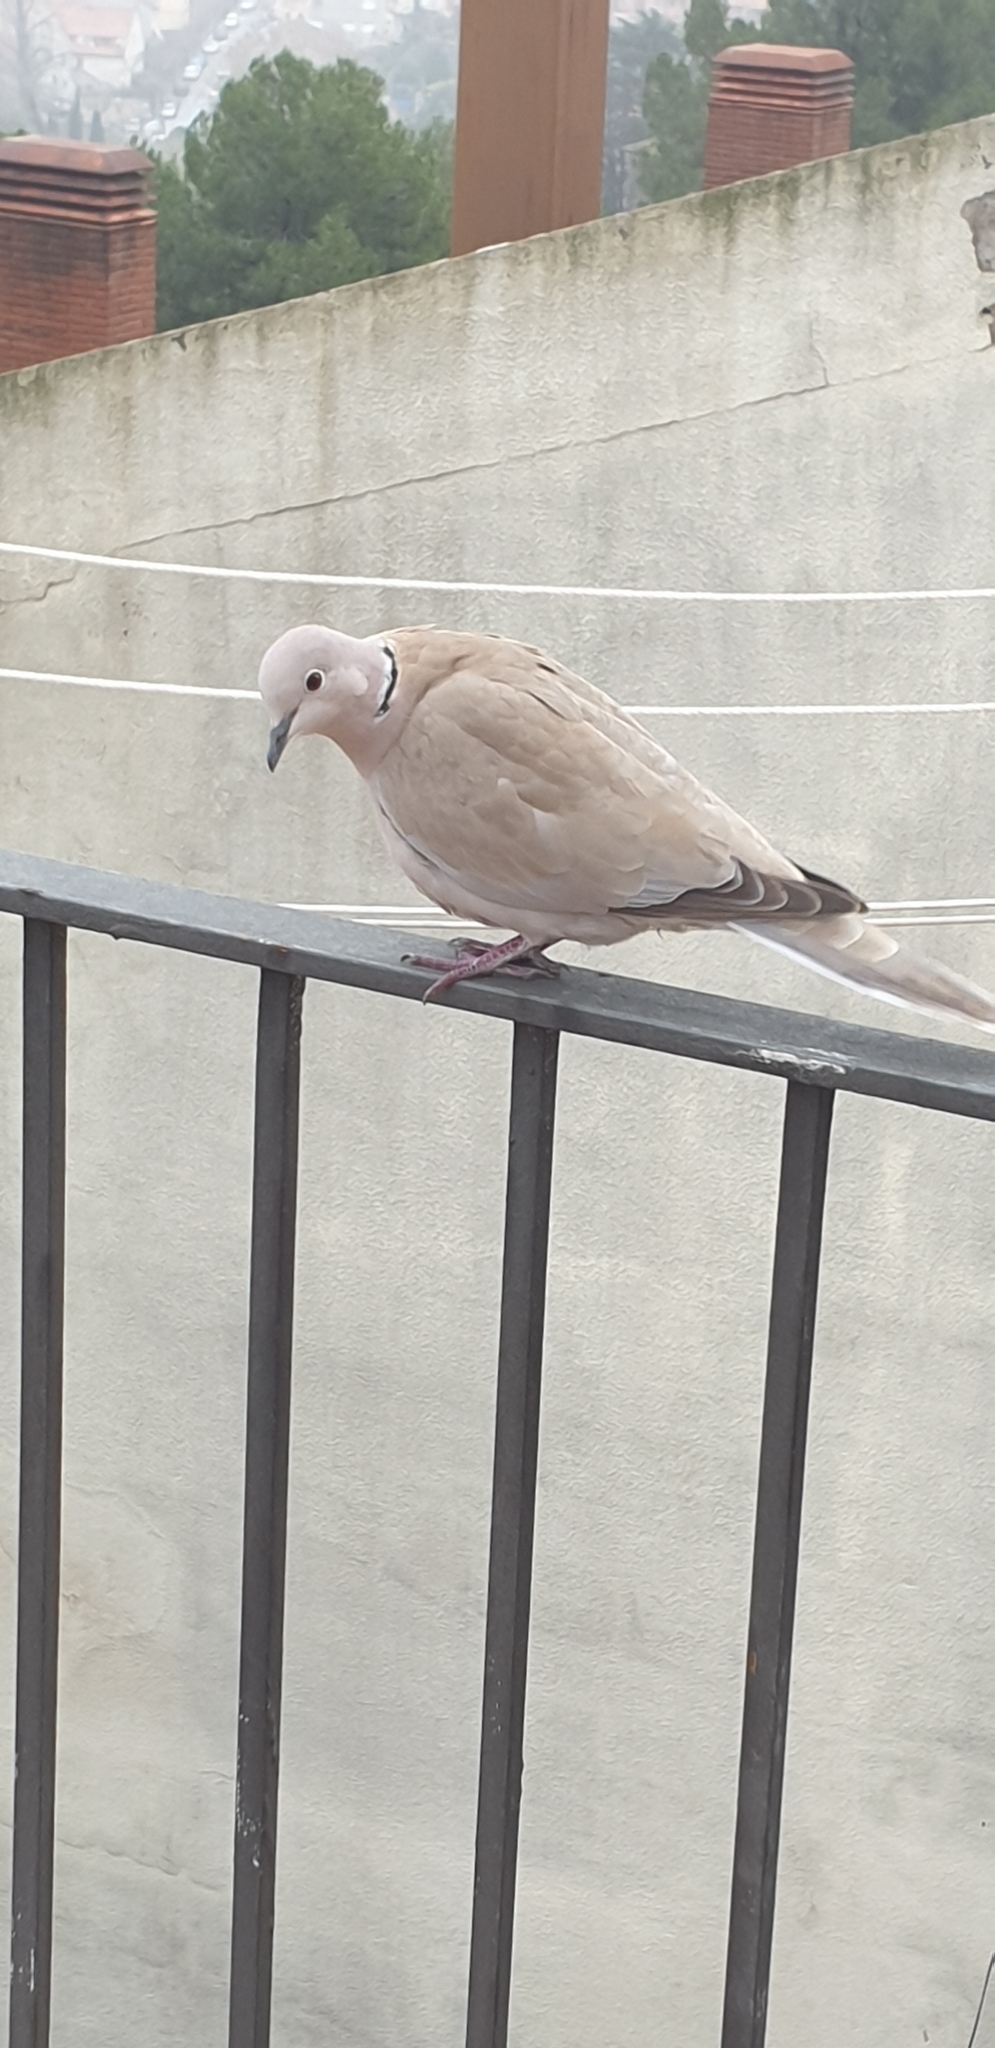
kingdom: Animalia
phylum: Chordata
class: Aves
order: Columbiformes
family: Columbidae
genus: Streptopelia
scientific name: Streptopelia decaocto
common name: Eurasian collared dove
